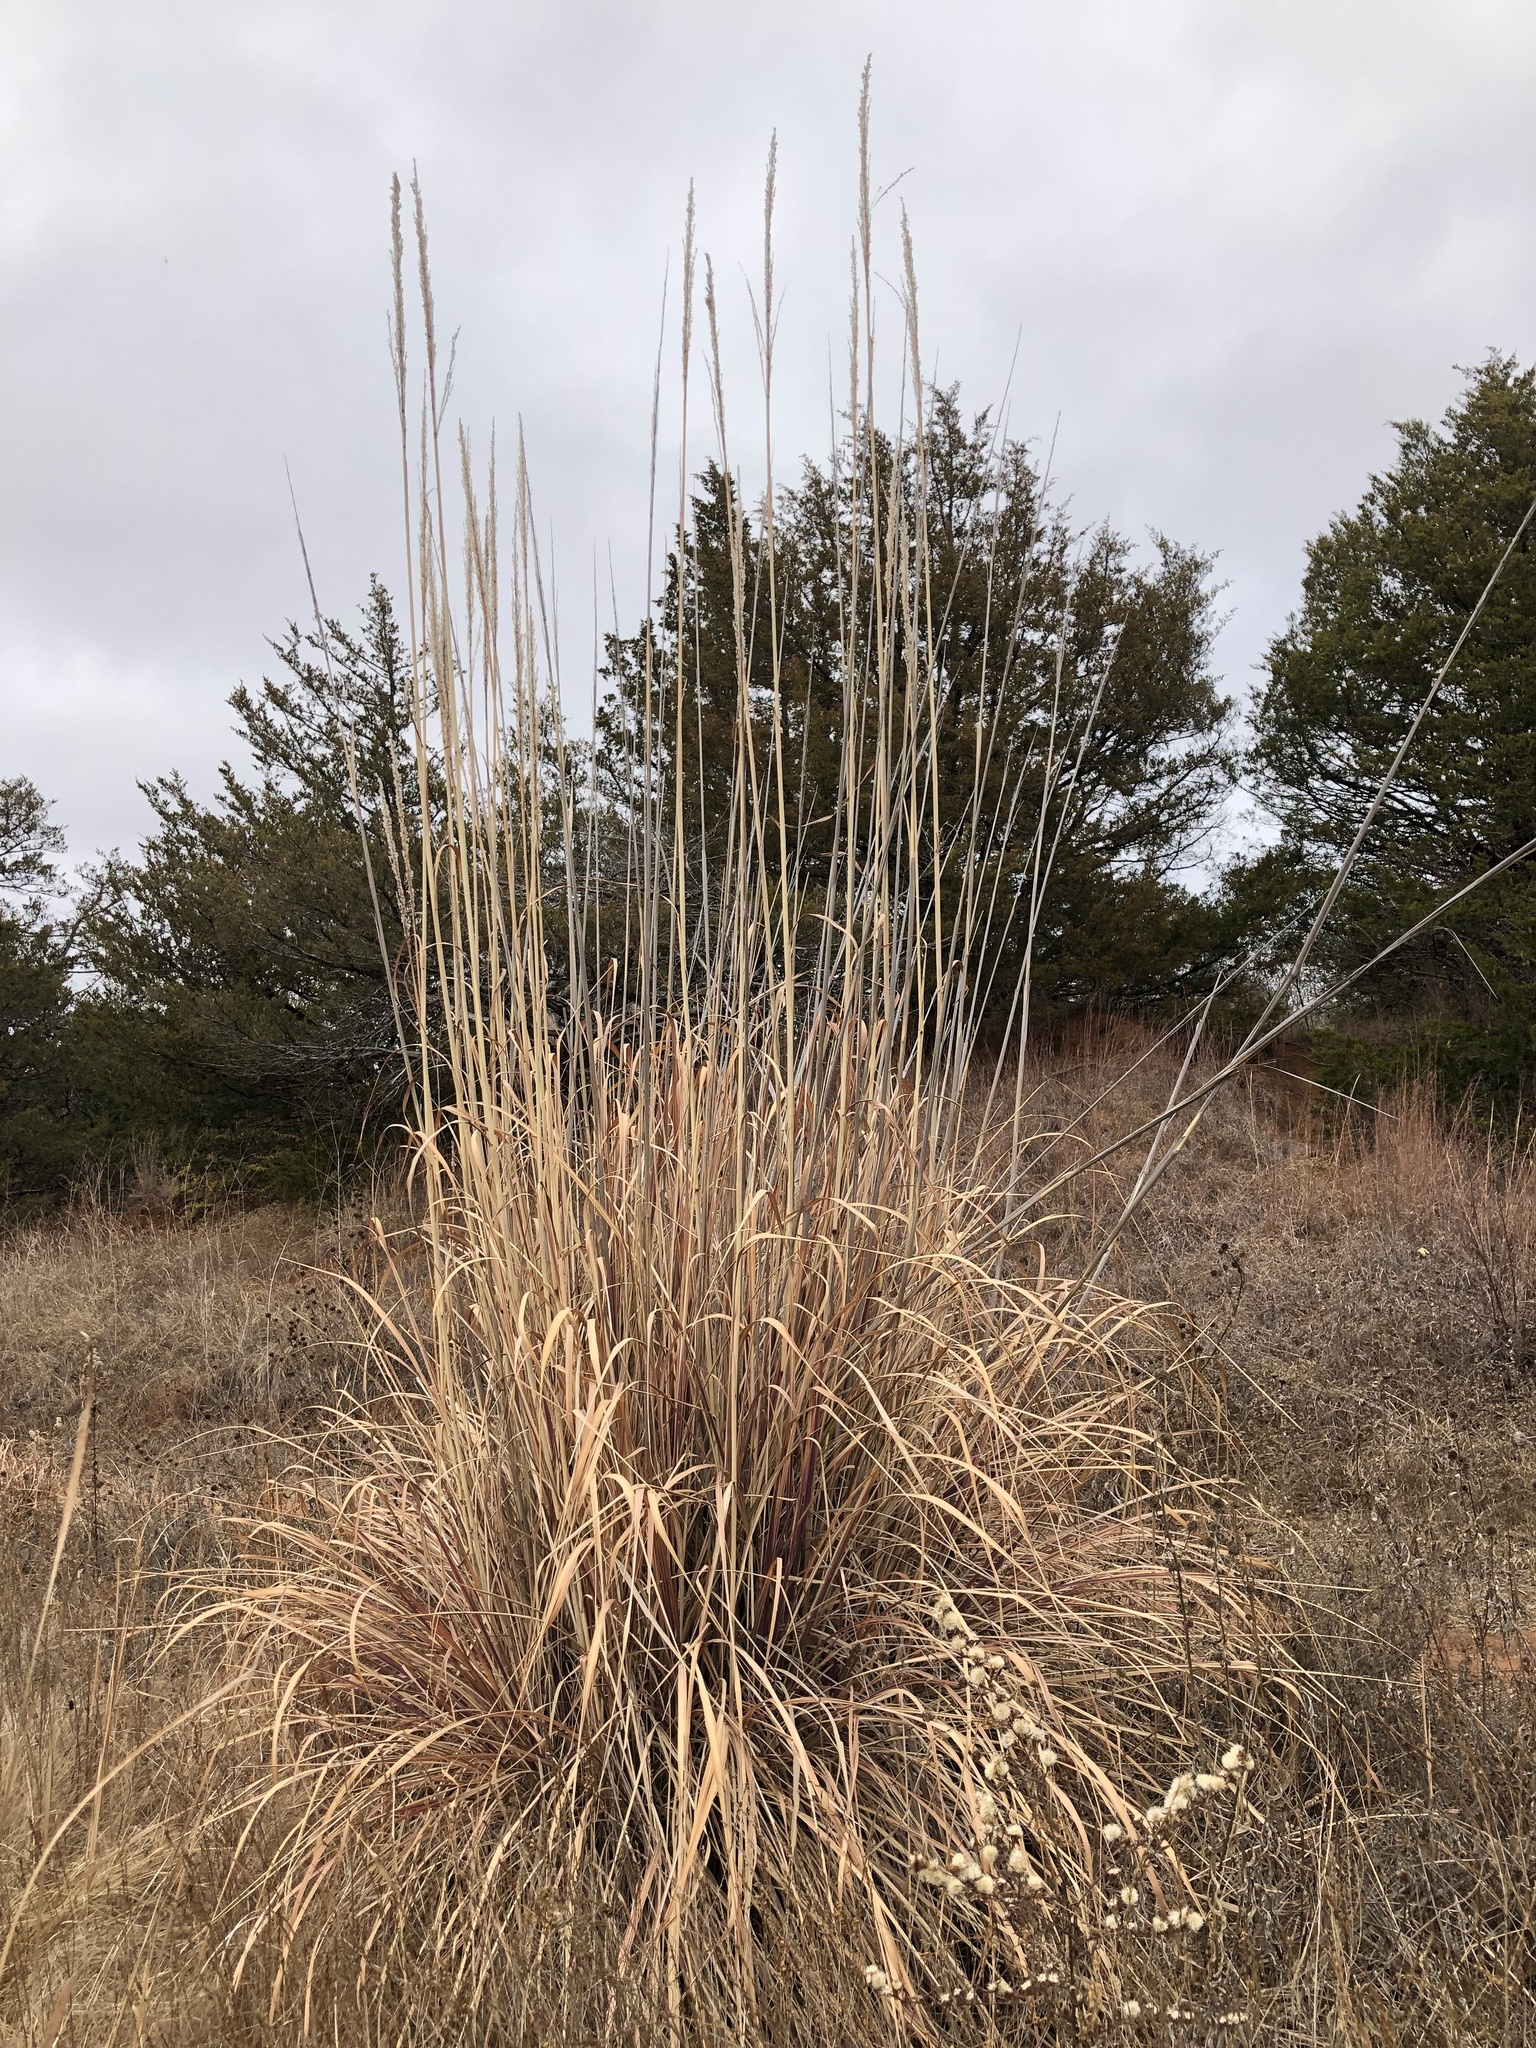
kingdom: Plantae
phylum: Tracheophyta
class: Liliopsida
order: Poales
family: Poaceae
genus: Tripidium
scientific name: Tripidium ravennae
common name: Ravenna grass
